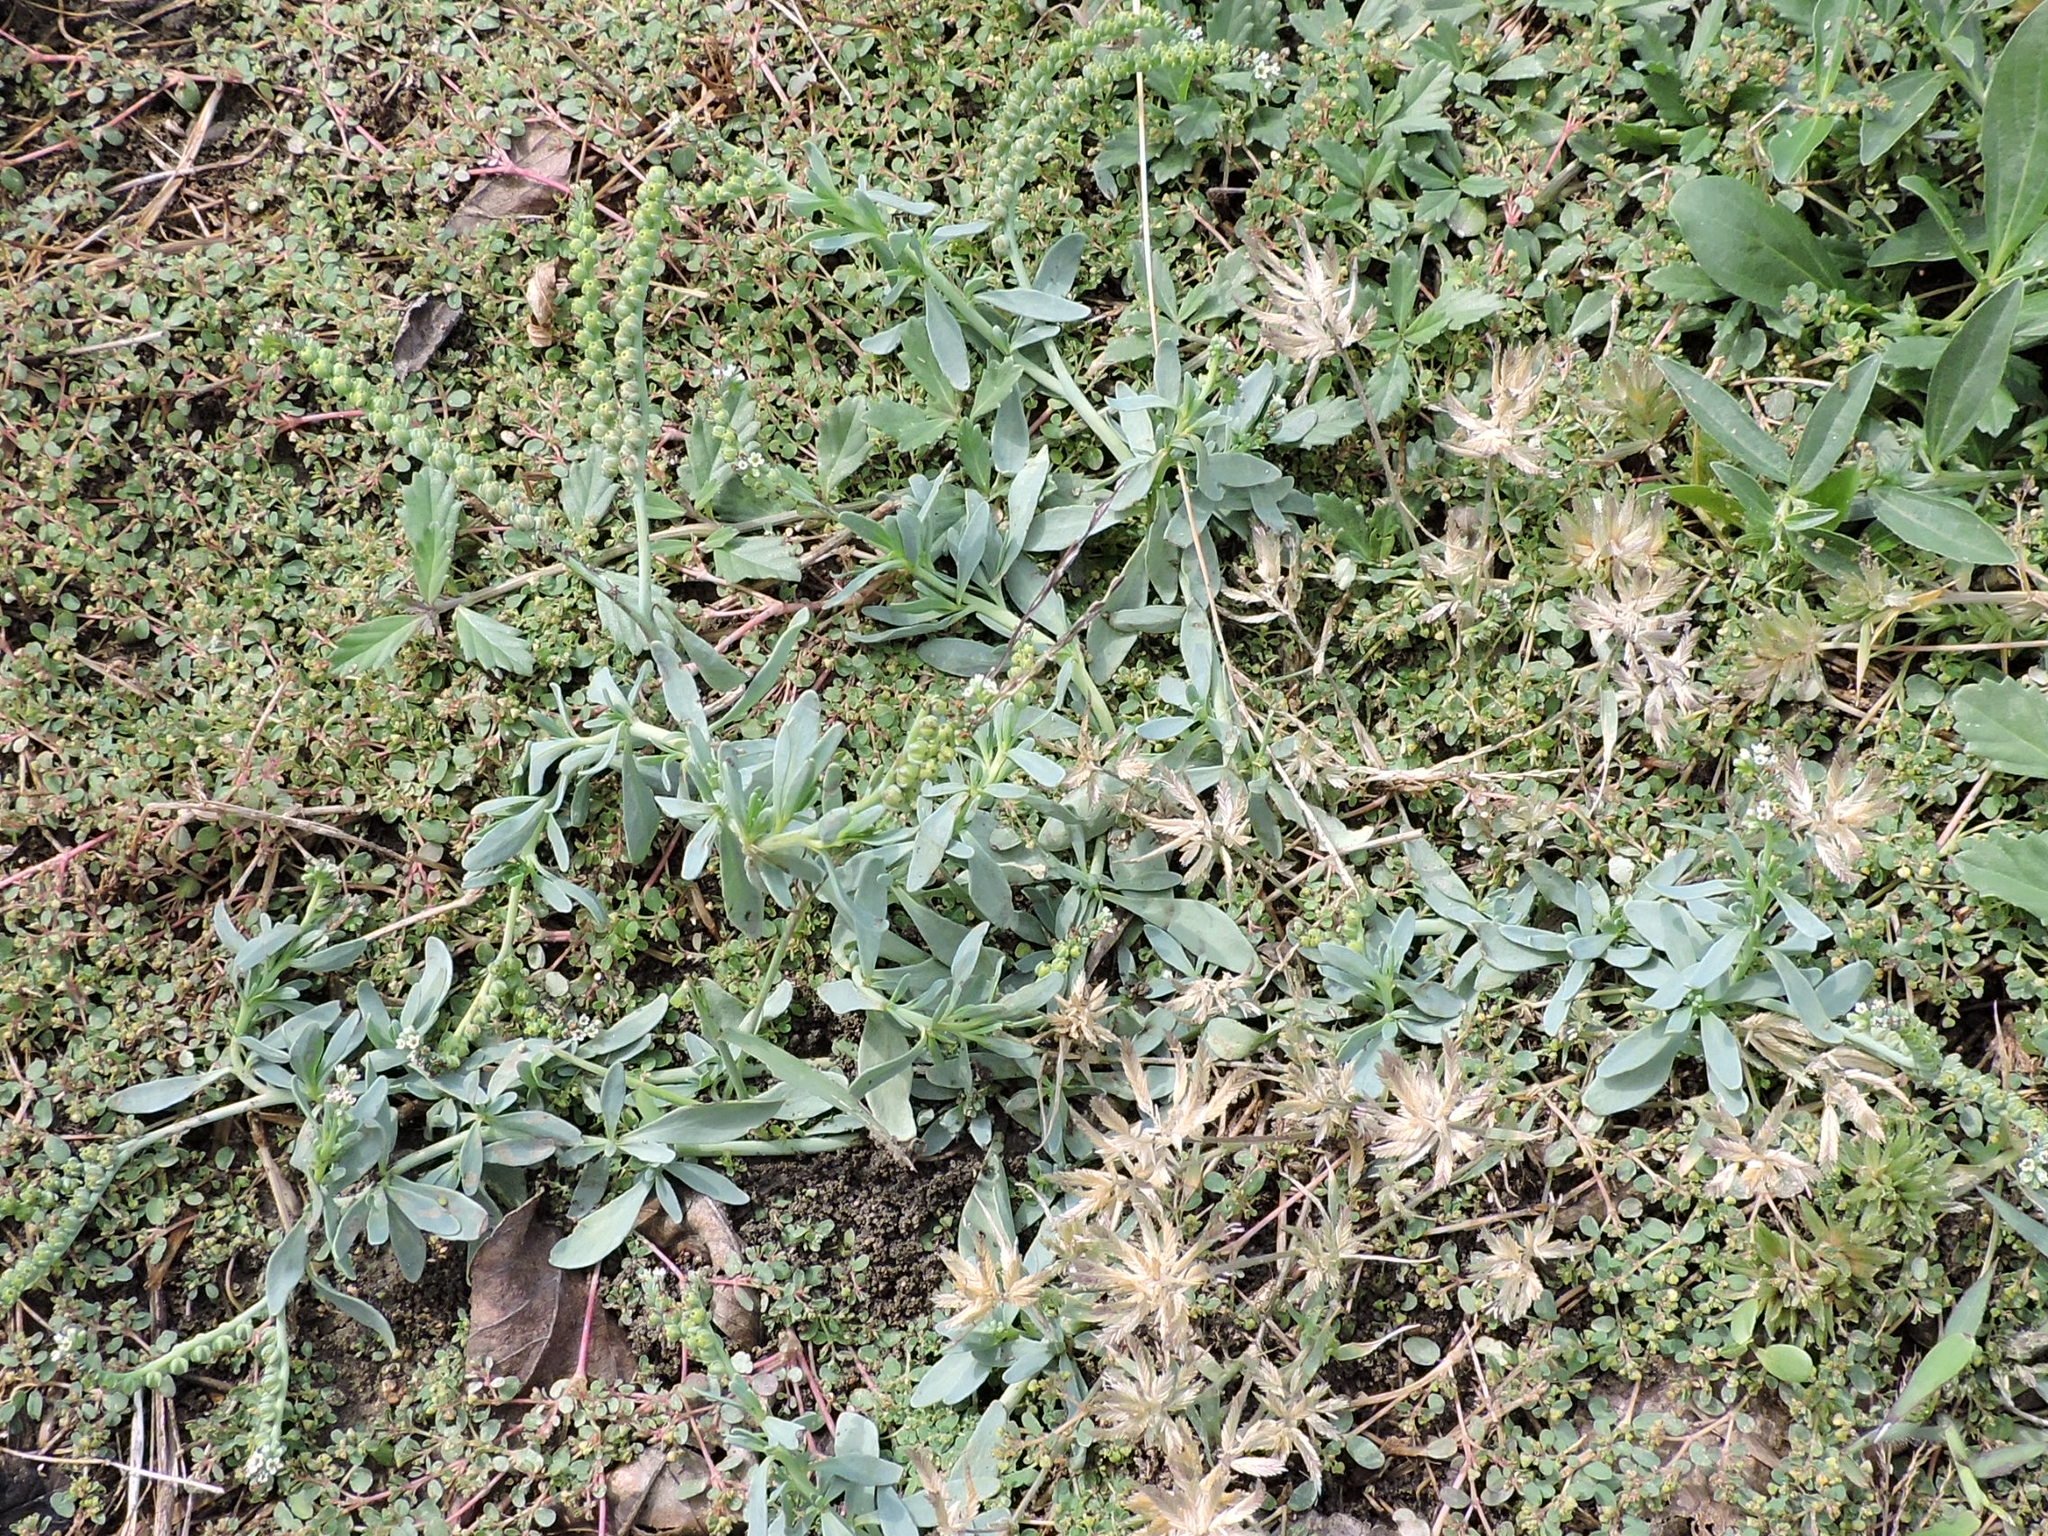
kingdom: Plantae
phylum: Tracheophyta
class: Magnoliopsida
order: Boraginales
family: Heliotropiaceae
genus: Heliotropium
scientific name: Heliotropium curassavicum
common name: Seaside heliotrope
